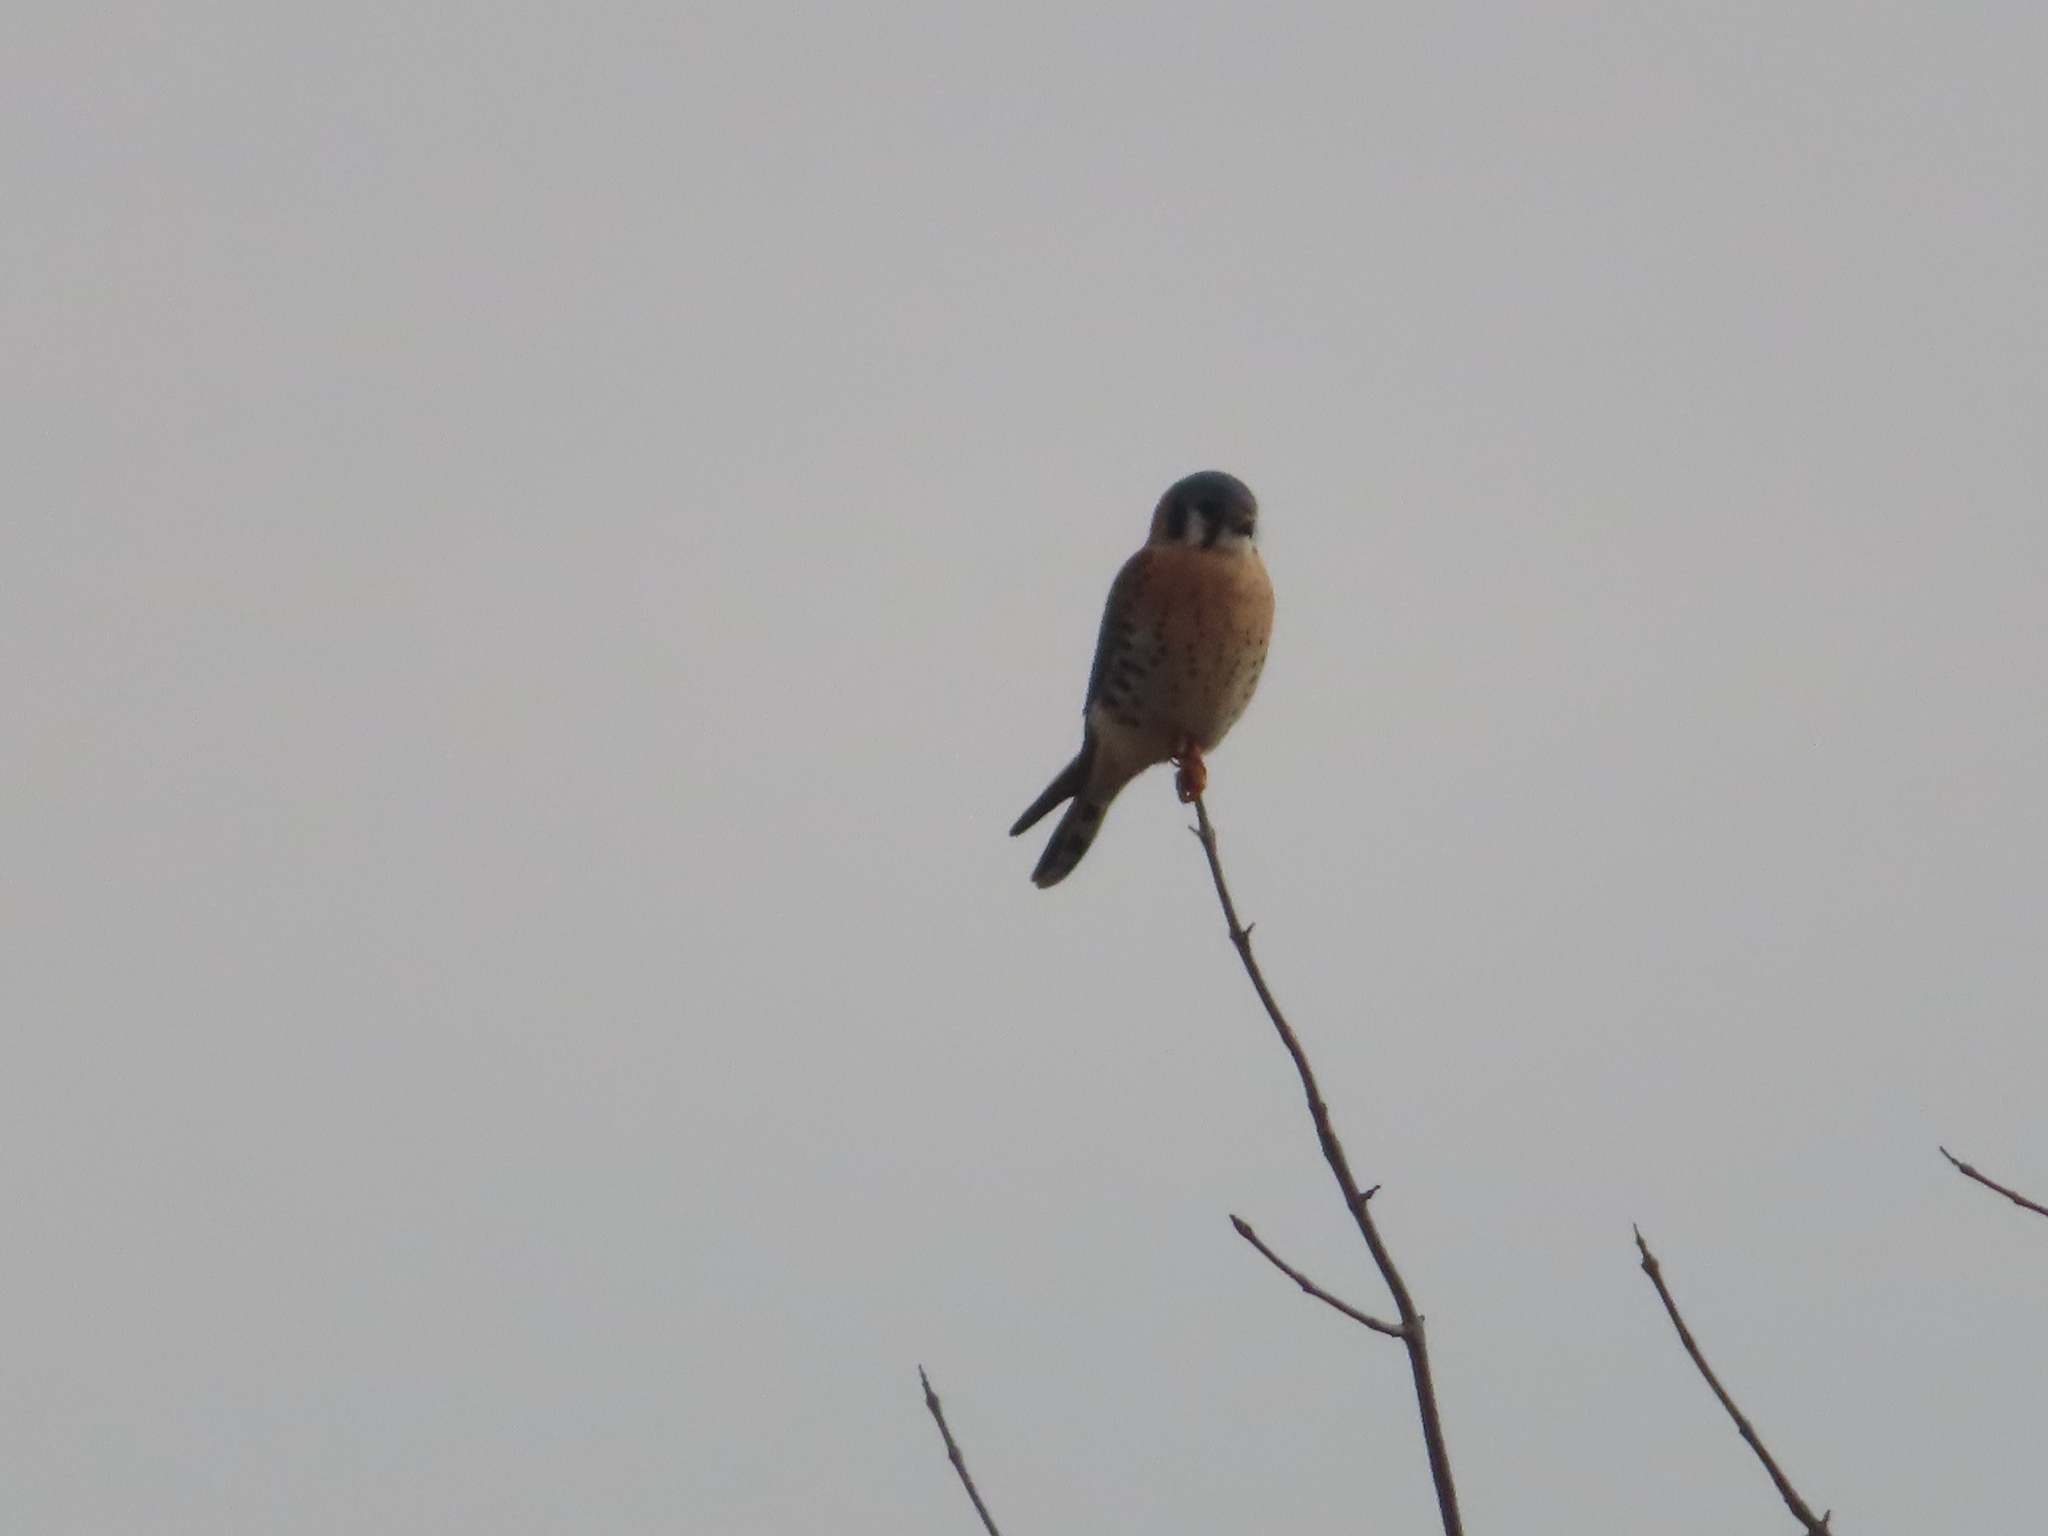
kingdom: Animalia
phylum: Chordata
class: Aves
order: Falconiformes
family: Falconidae
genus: Falco
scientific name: Falco sparverius
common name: American kestrel
